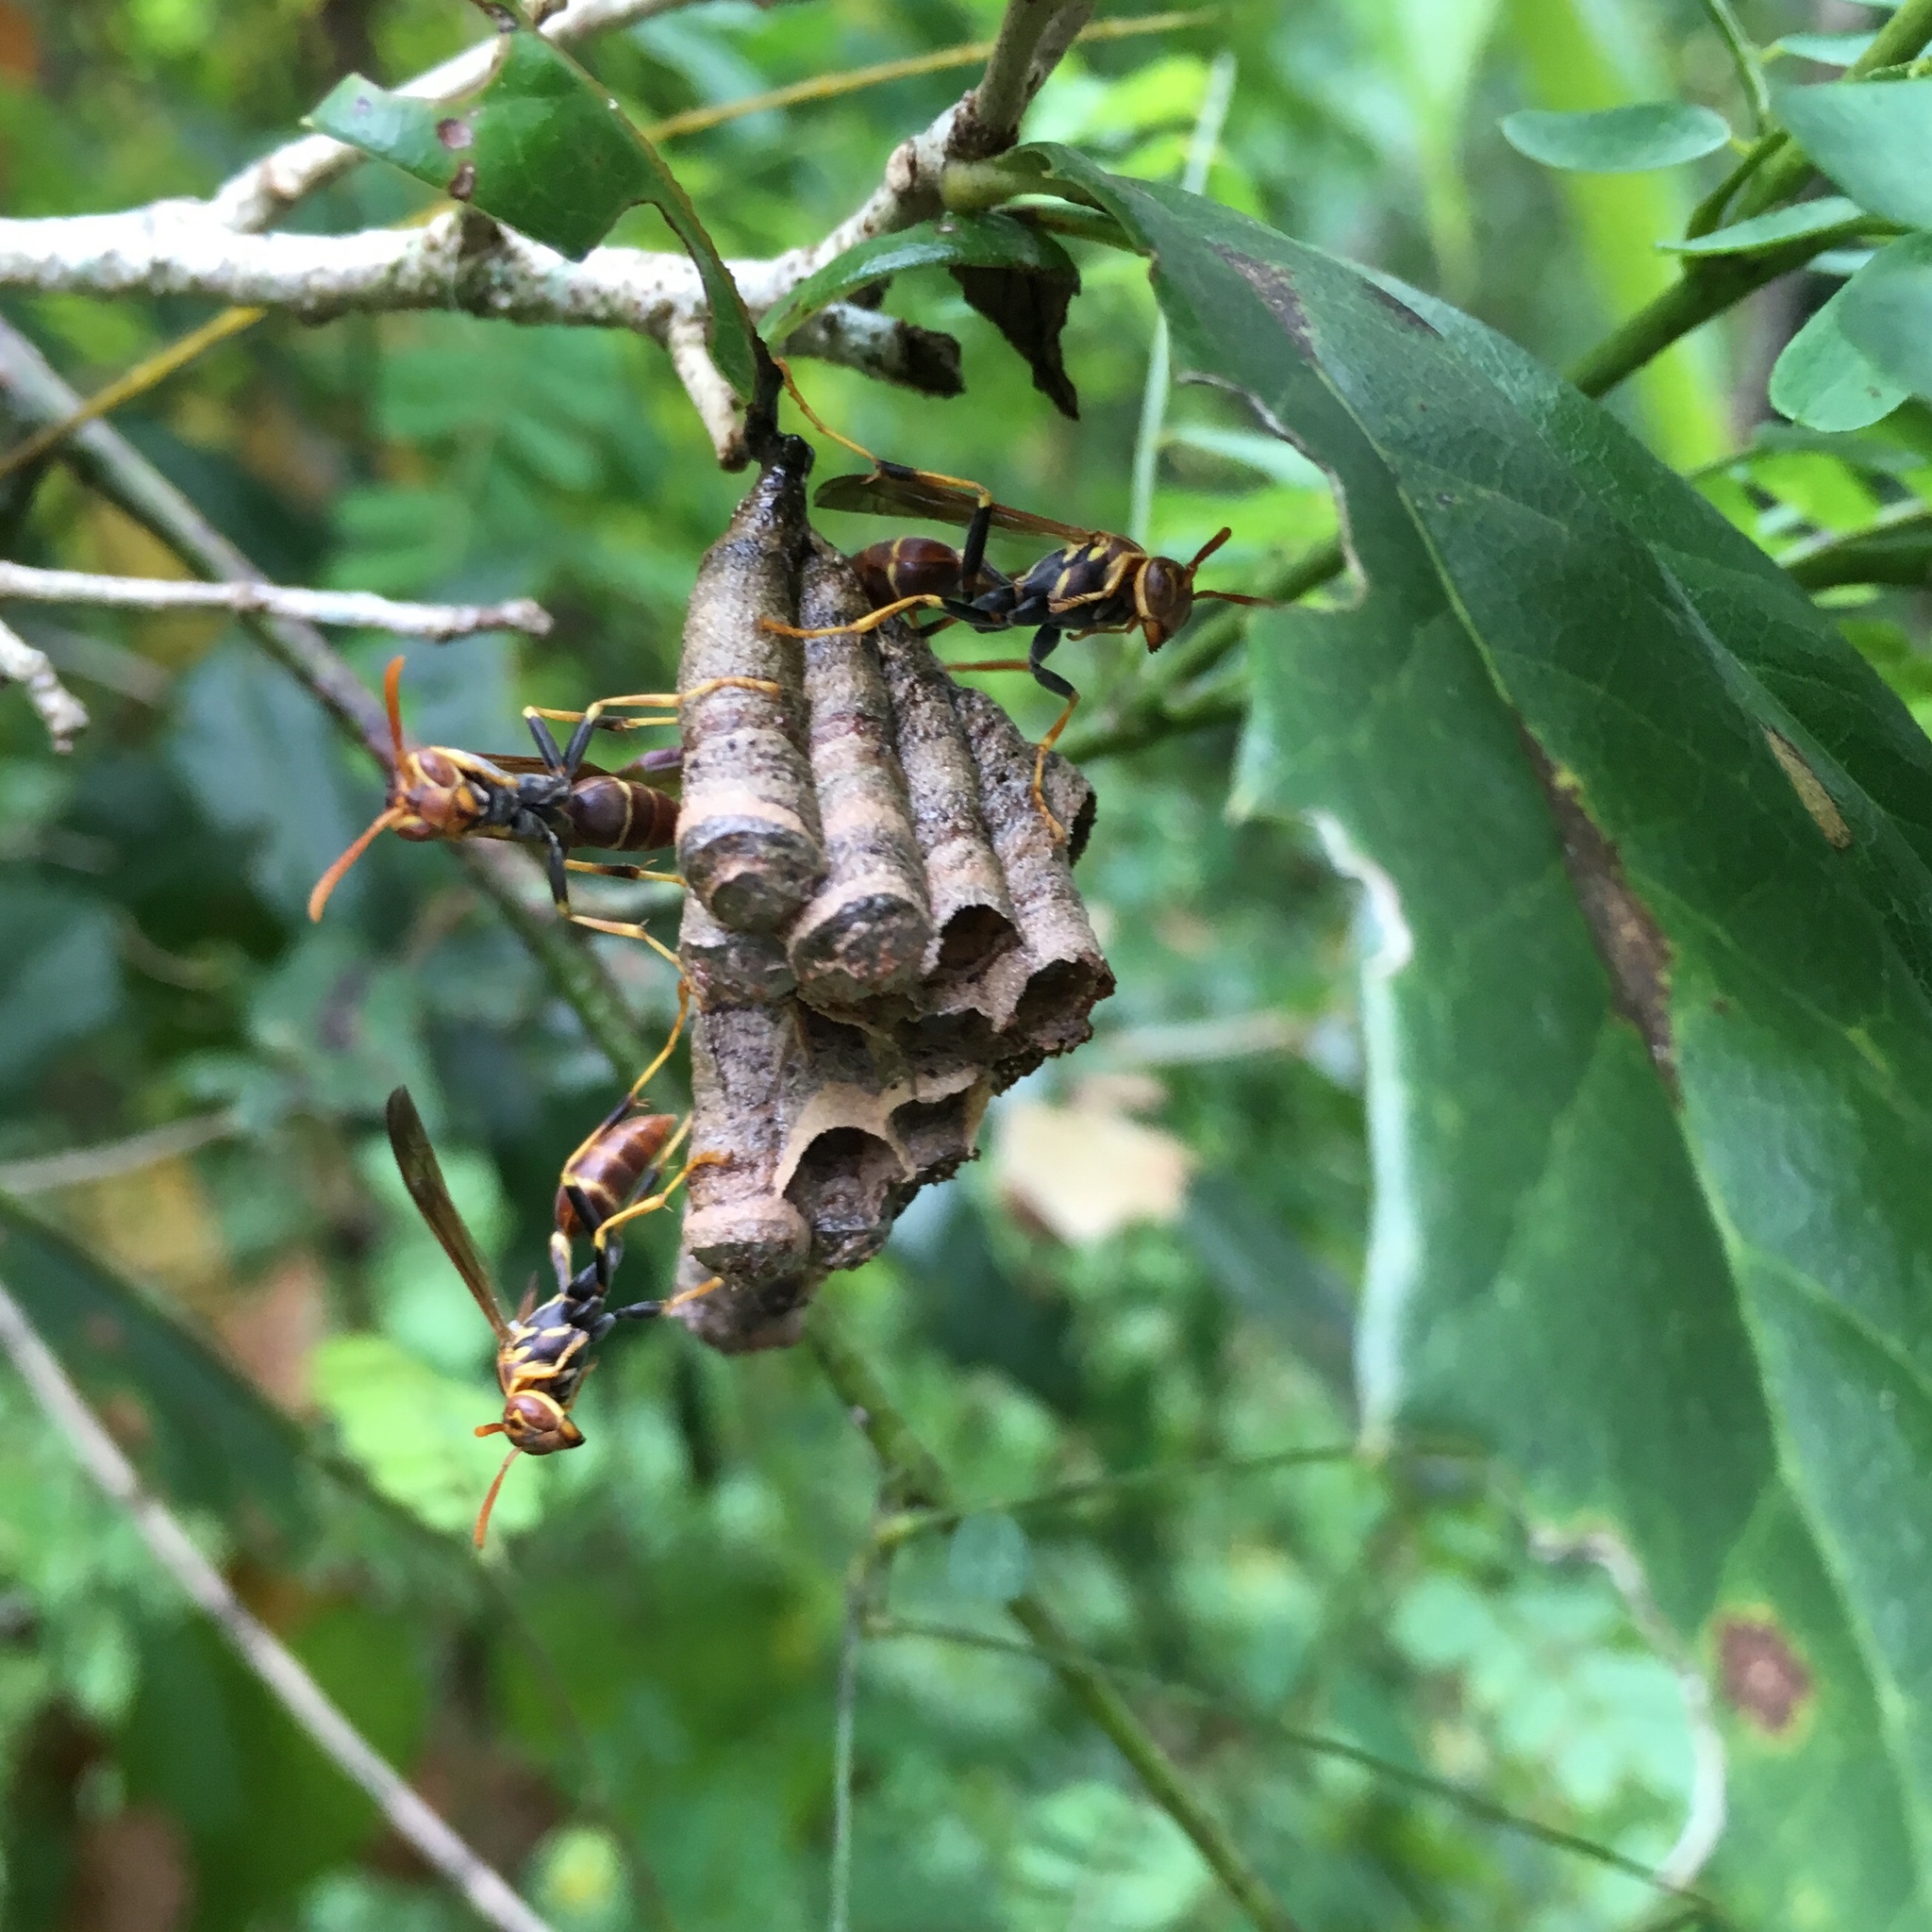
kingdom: Animalia
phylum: Arthropoda
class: Insecta
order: Hymenoptera
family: Vespidae
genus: Mischocyttarus
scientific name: Mischocyttarus mexicanus
